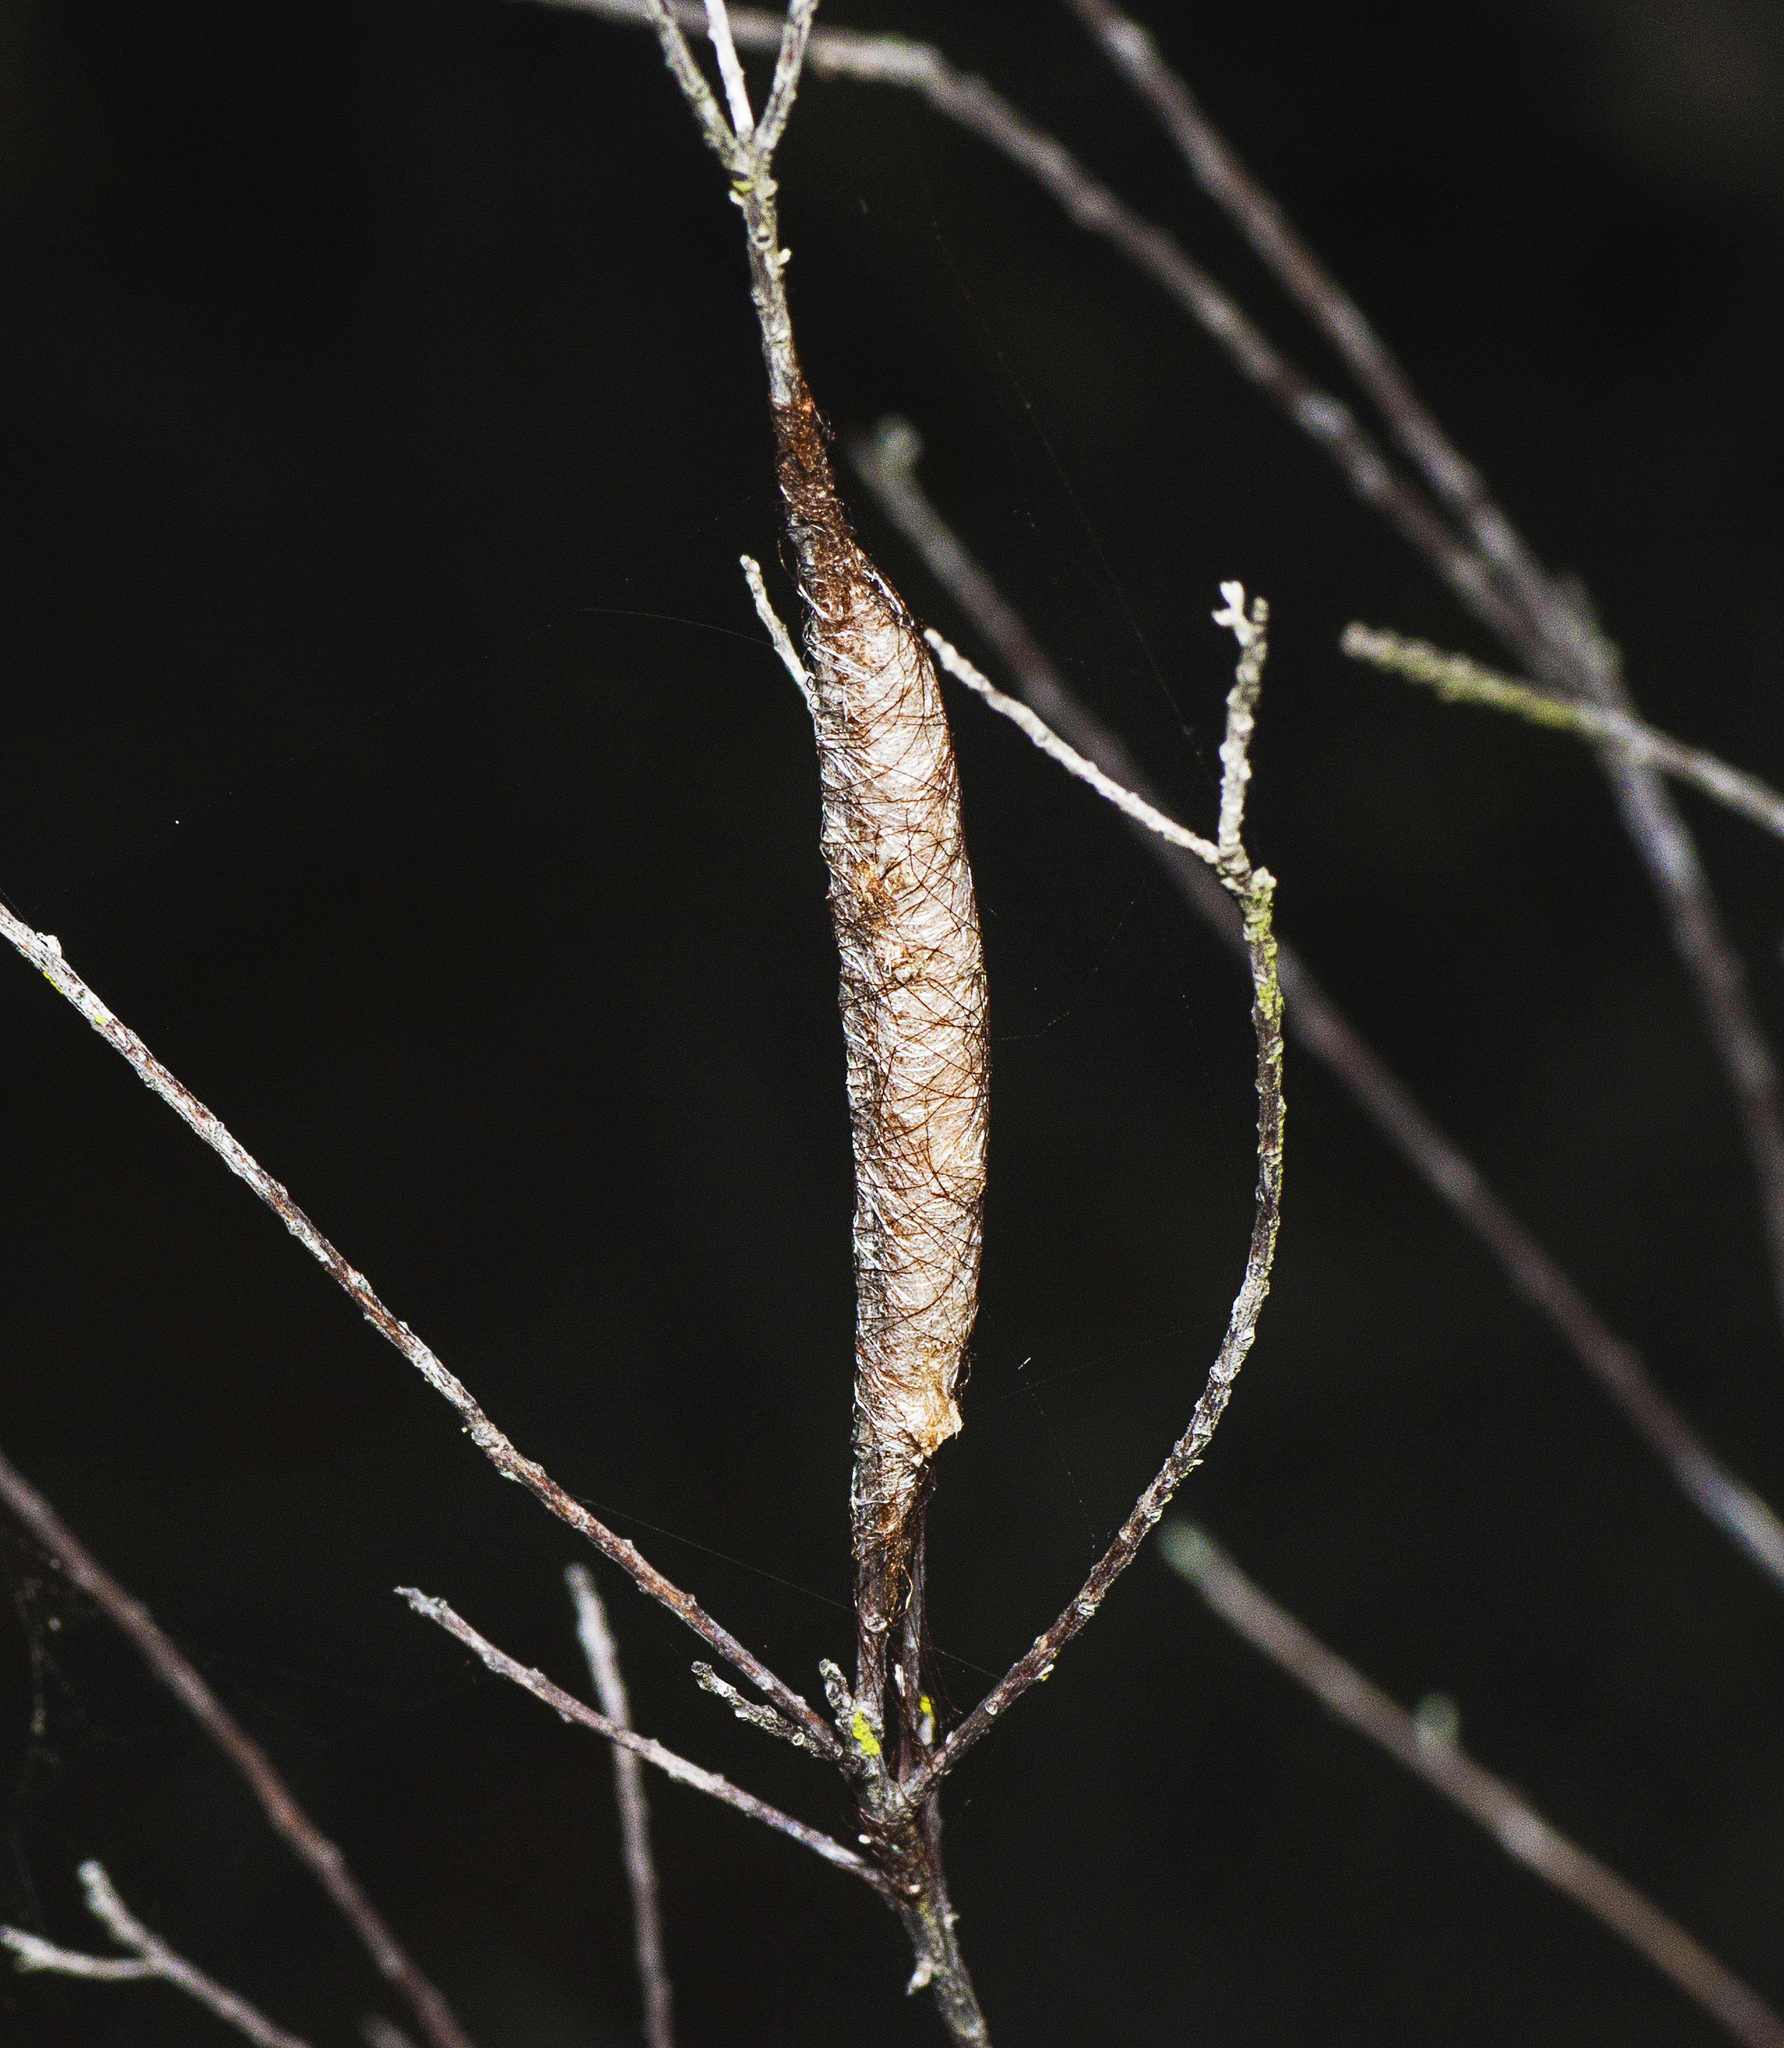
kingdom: Animalia
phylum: Arthropoda
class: Arachnida
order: Araneae
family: Araneidae
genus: Austracantha
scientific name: Austracantha minax
